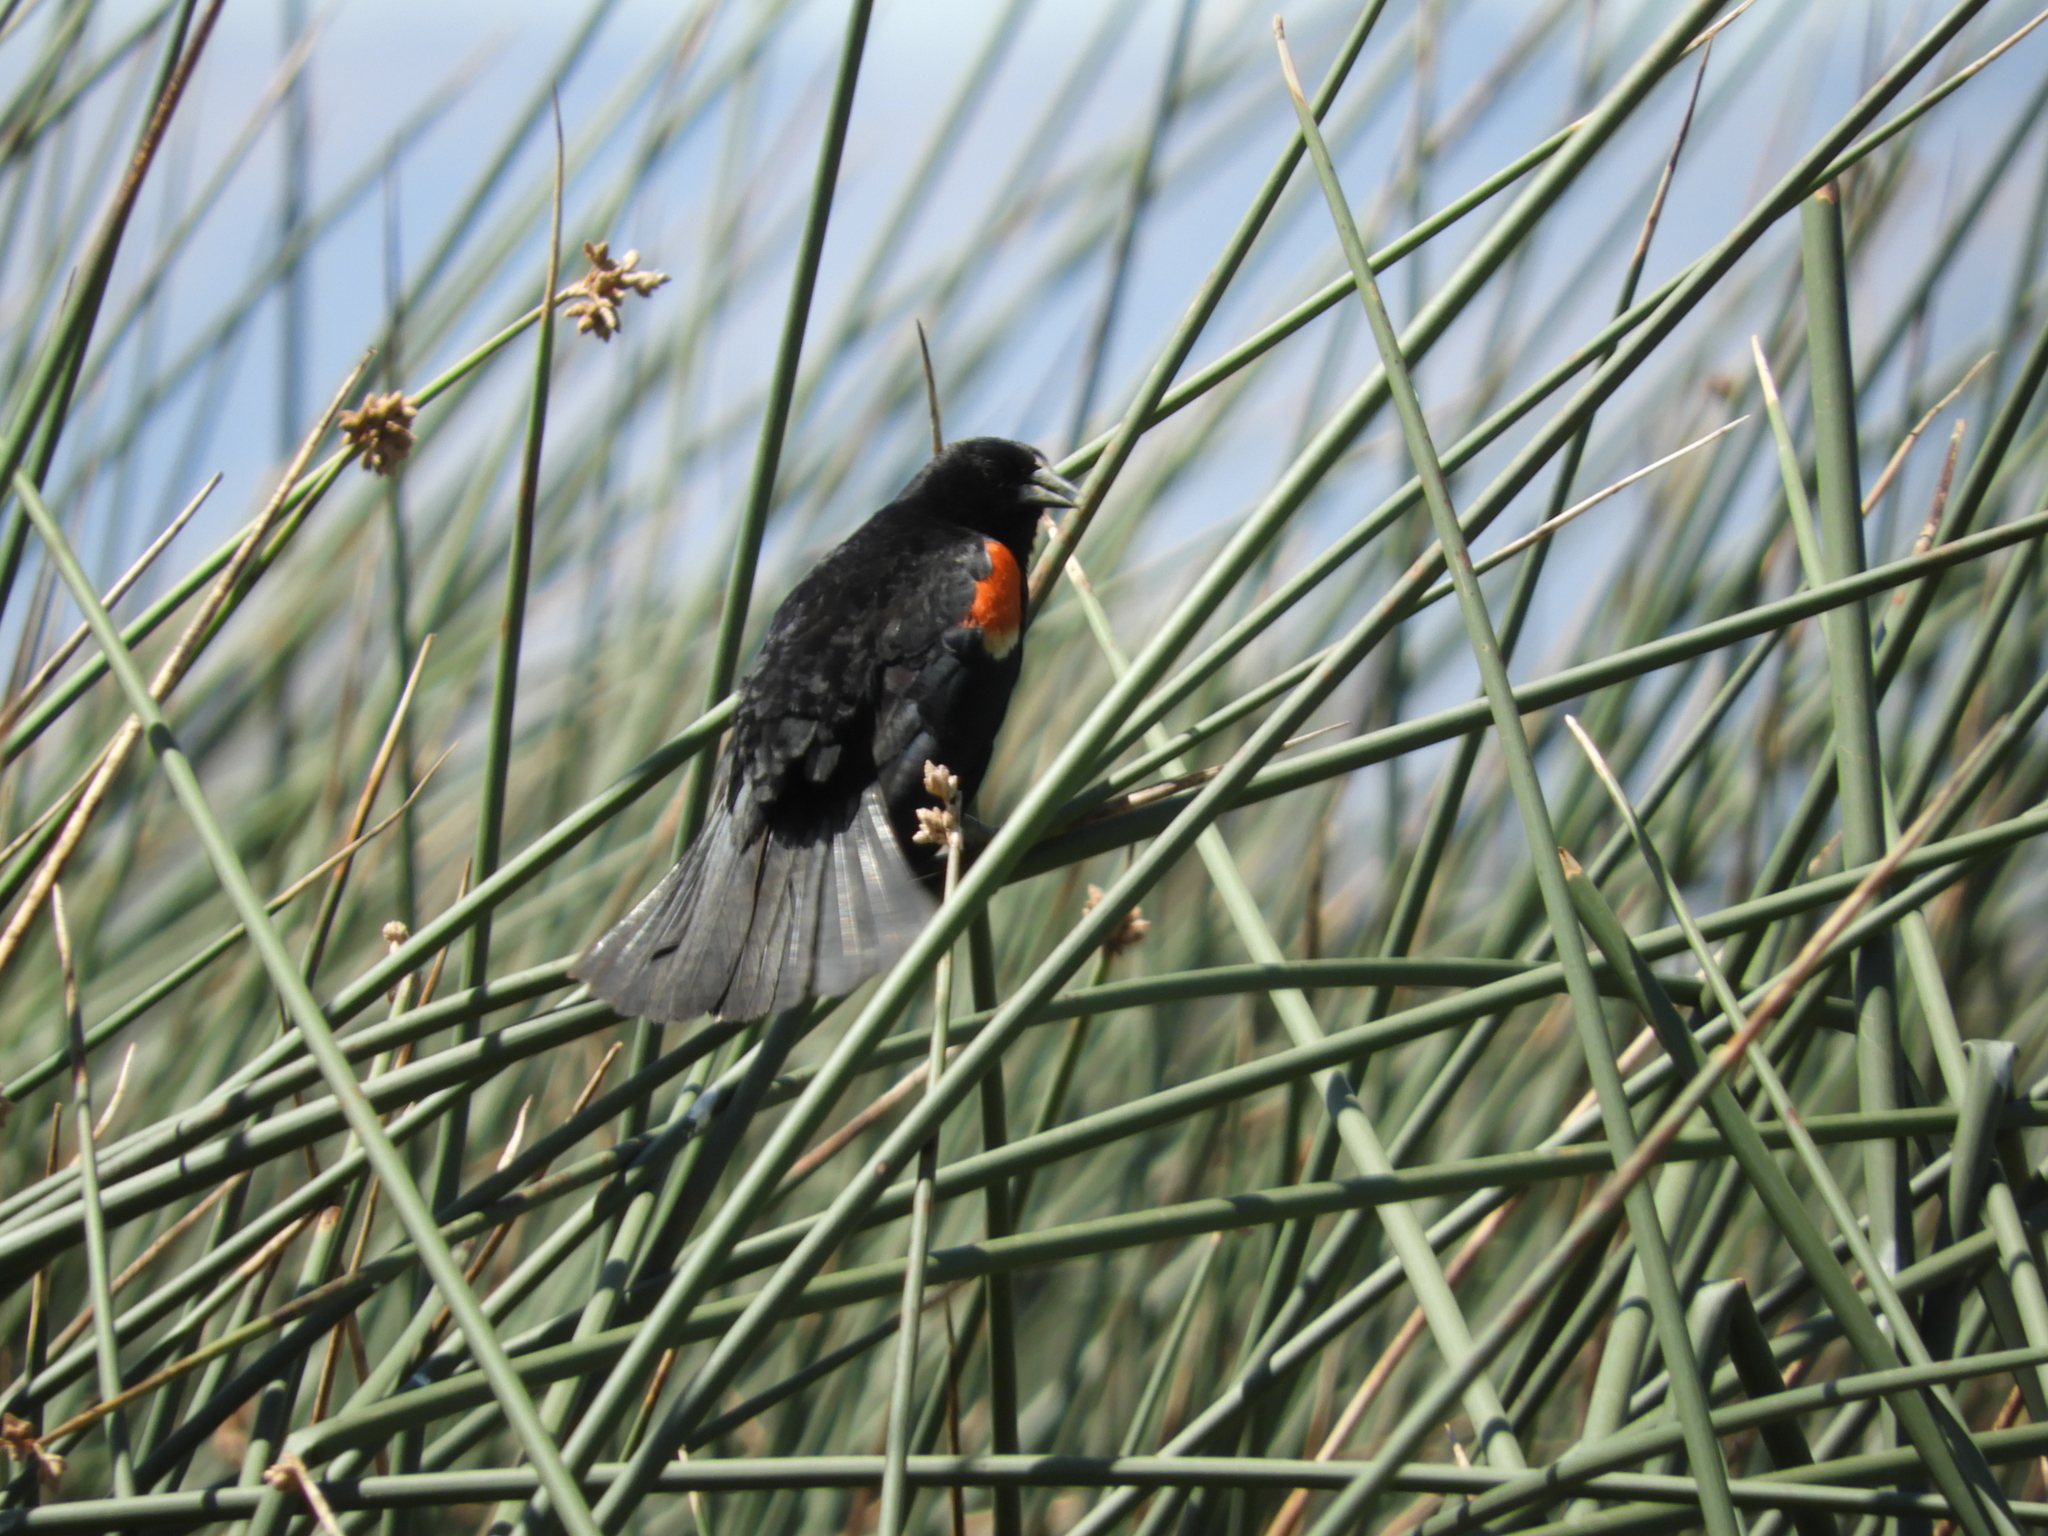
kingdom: Animalia
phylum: Chordata
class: Aves
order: Passeriformes
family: Icteridae
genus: Agelaius
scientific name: Agelaius phoeniceus
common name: Red-winged blackbird
